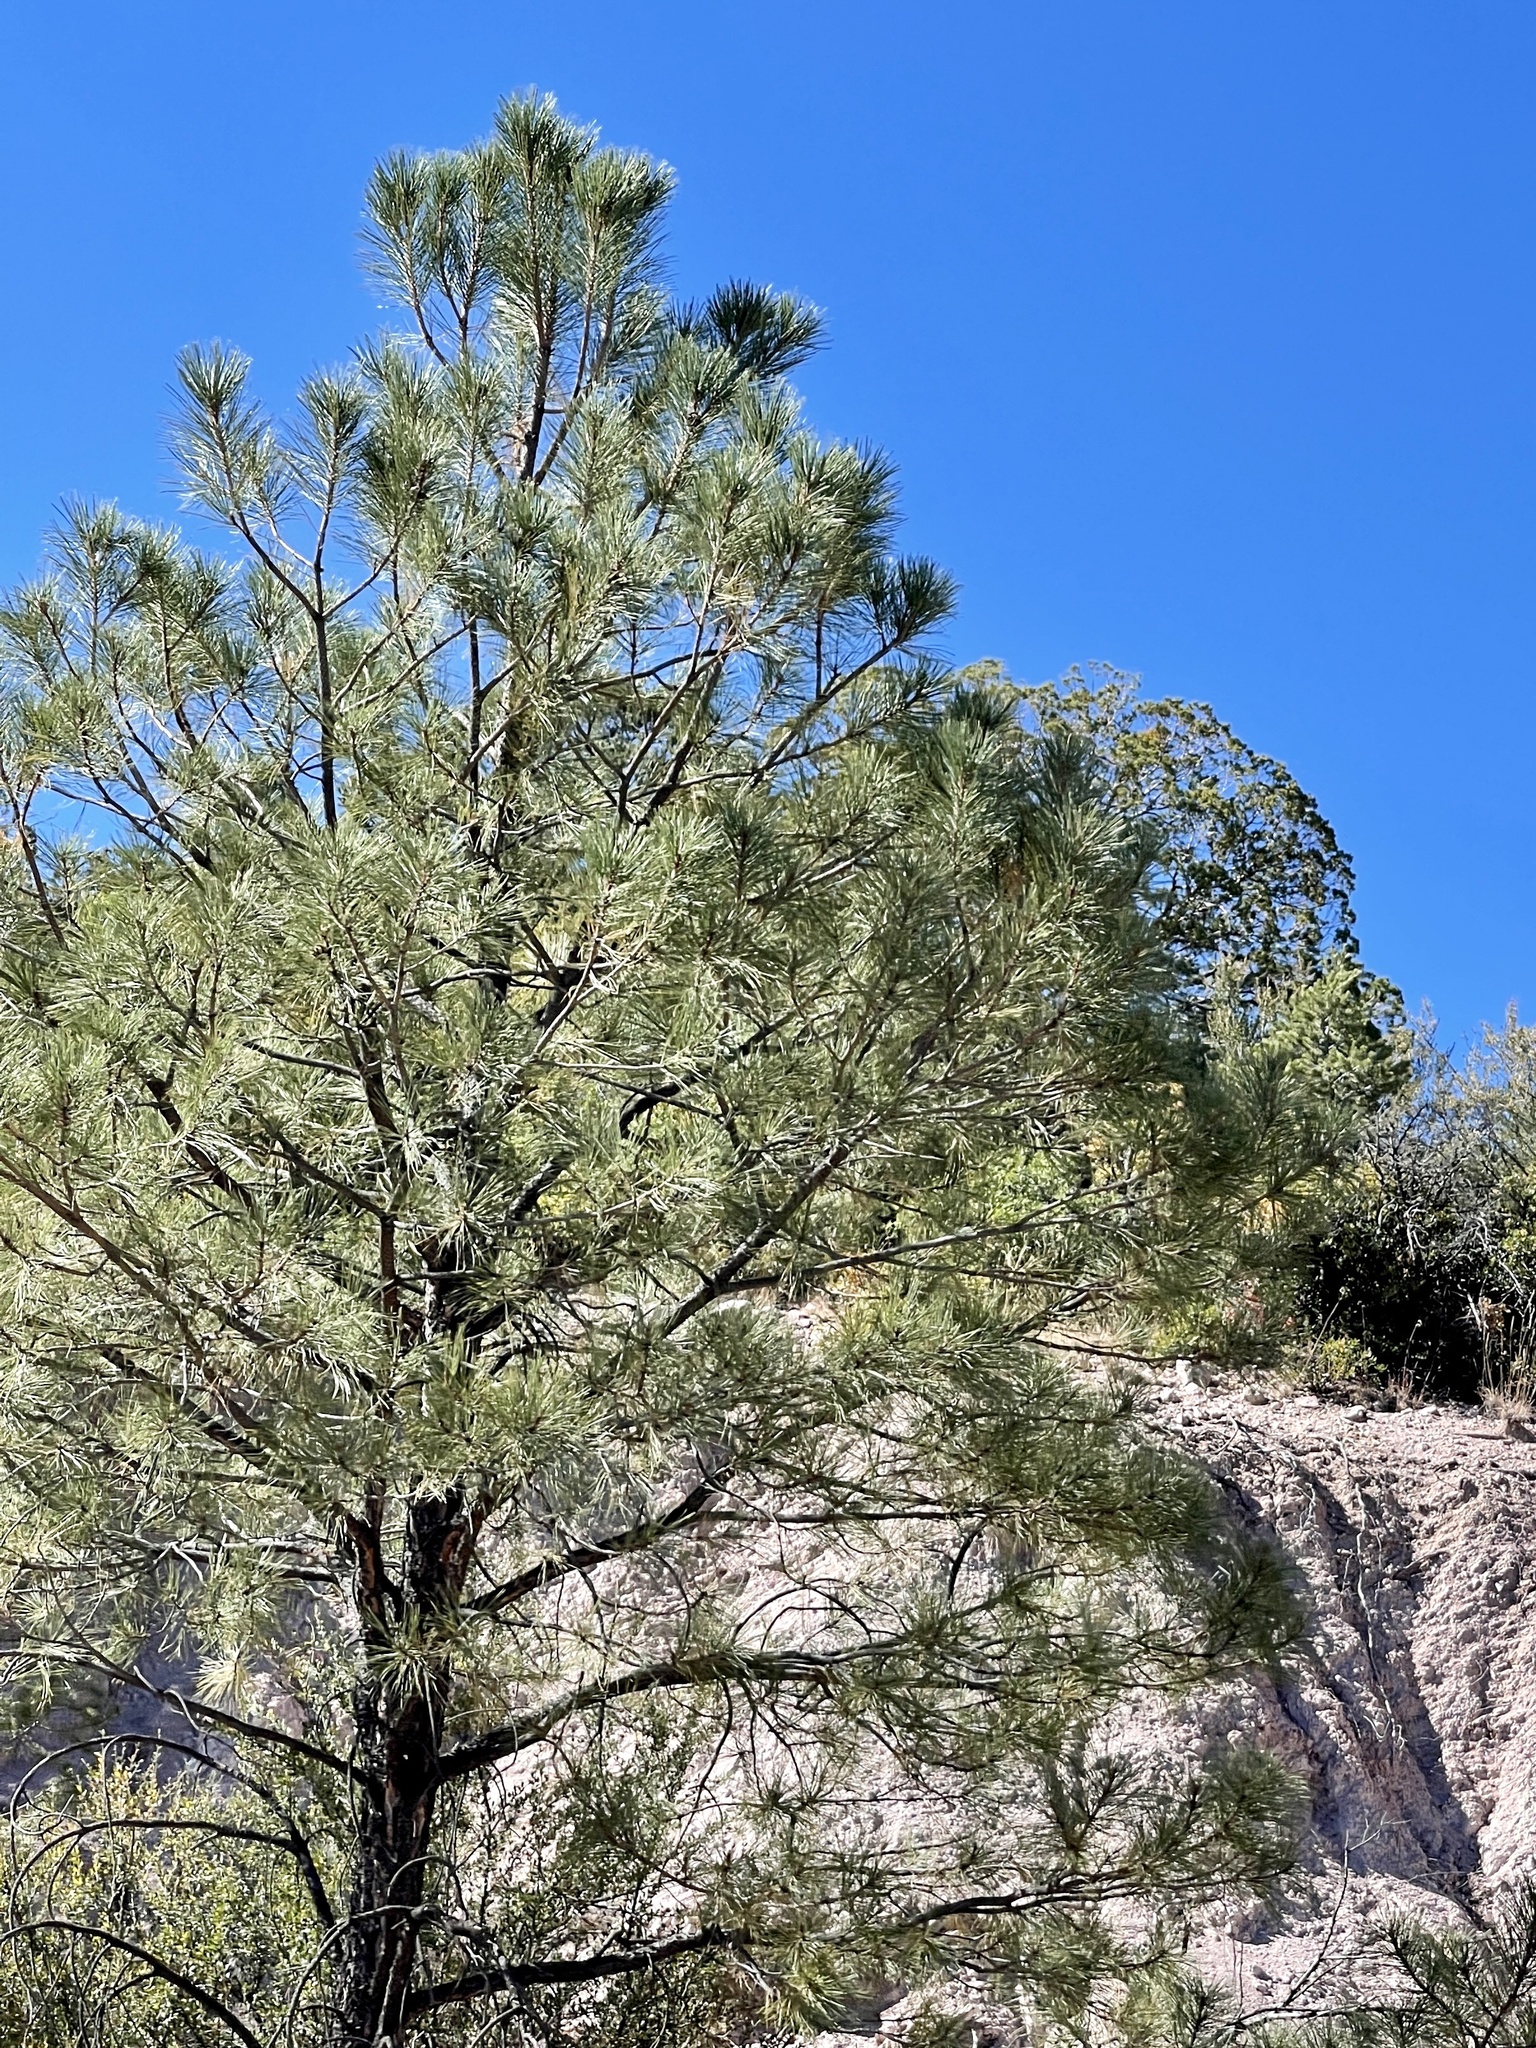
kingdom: Plantae
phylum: Tracheophyta
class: Pinopsida
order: Pinales
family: Pinaceae
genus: Pinus
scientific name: Pinus ponderosa
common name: Western yellow-pine
